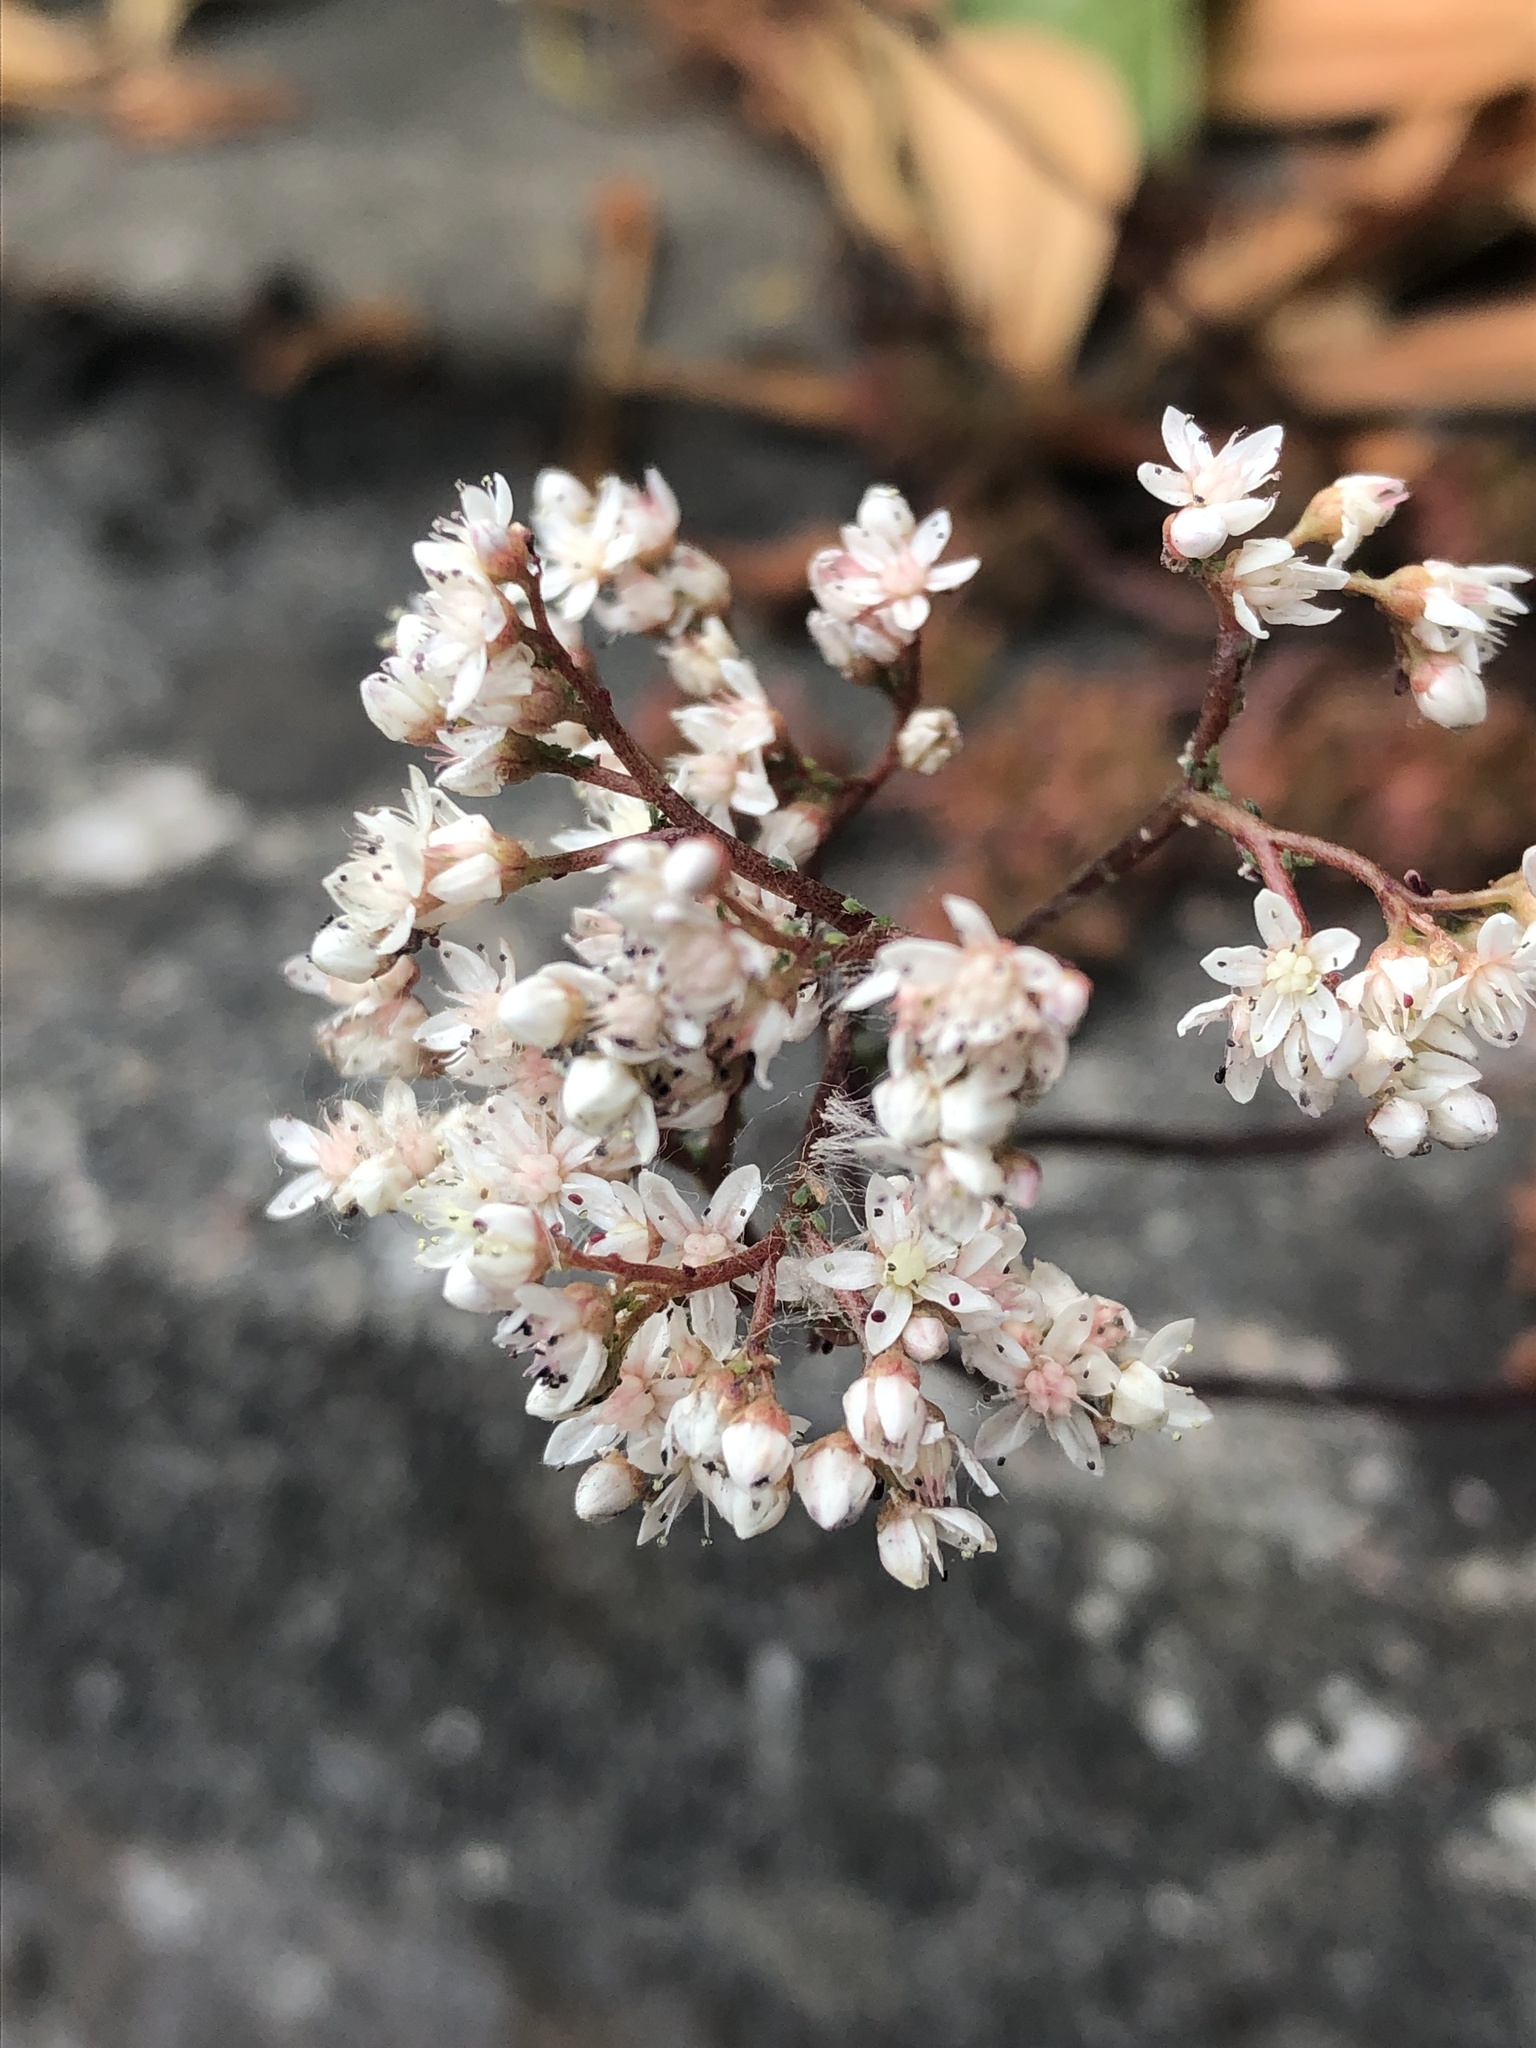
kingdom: Plantae
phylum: Tracheophyta
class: Magnoliopsida
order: Saxifragales
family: Crassulaceae
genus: Sedum
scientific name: Sedum album
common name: White stonecrop
